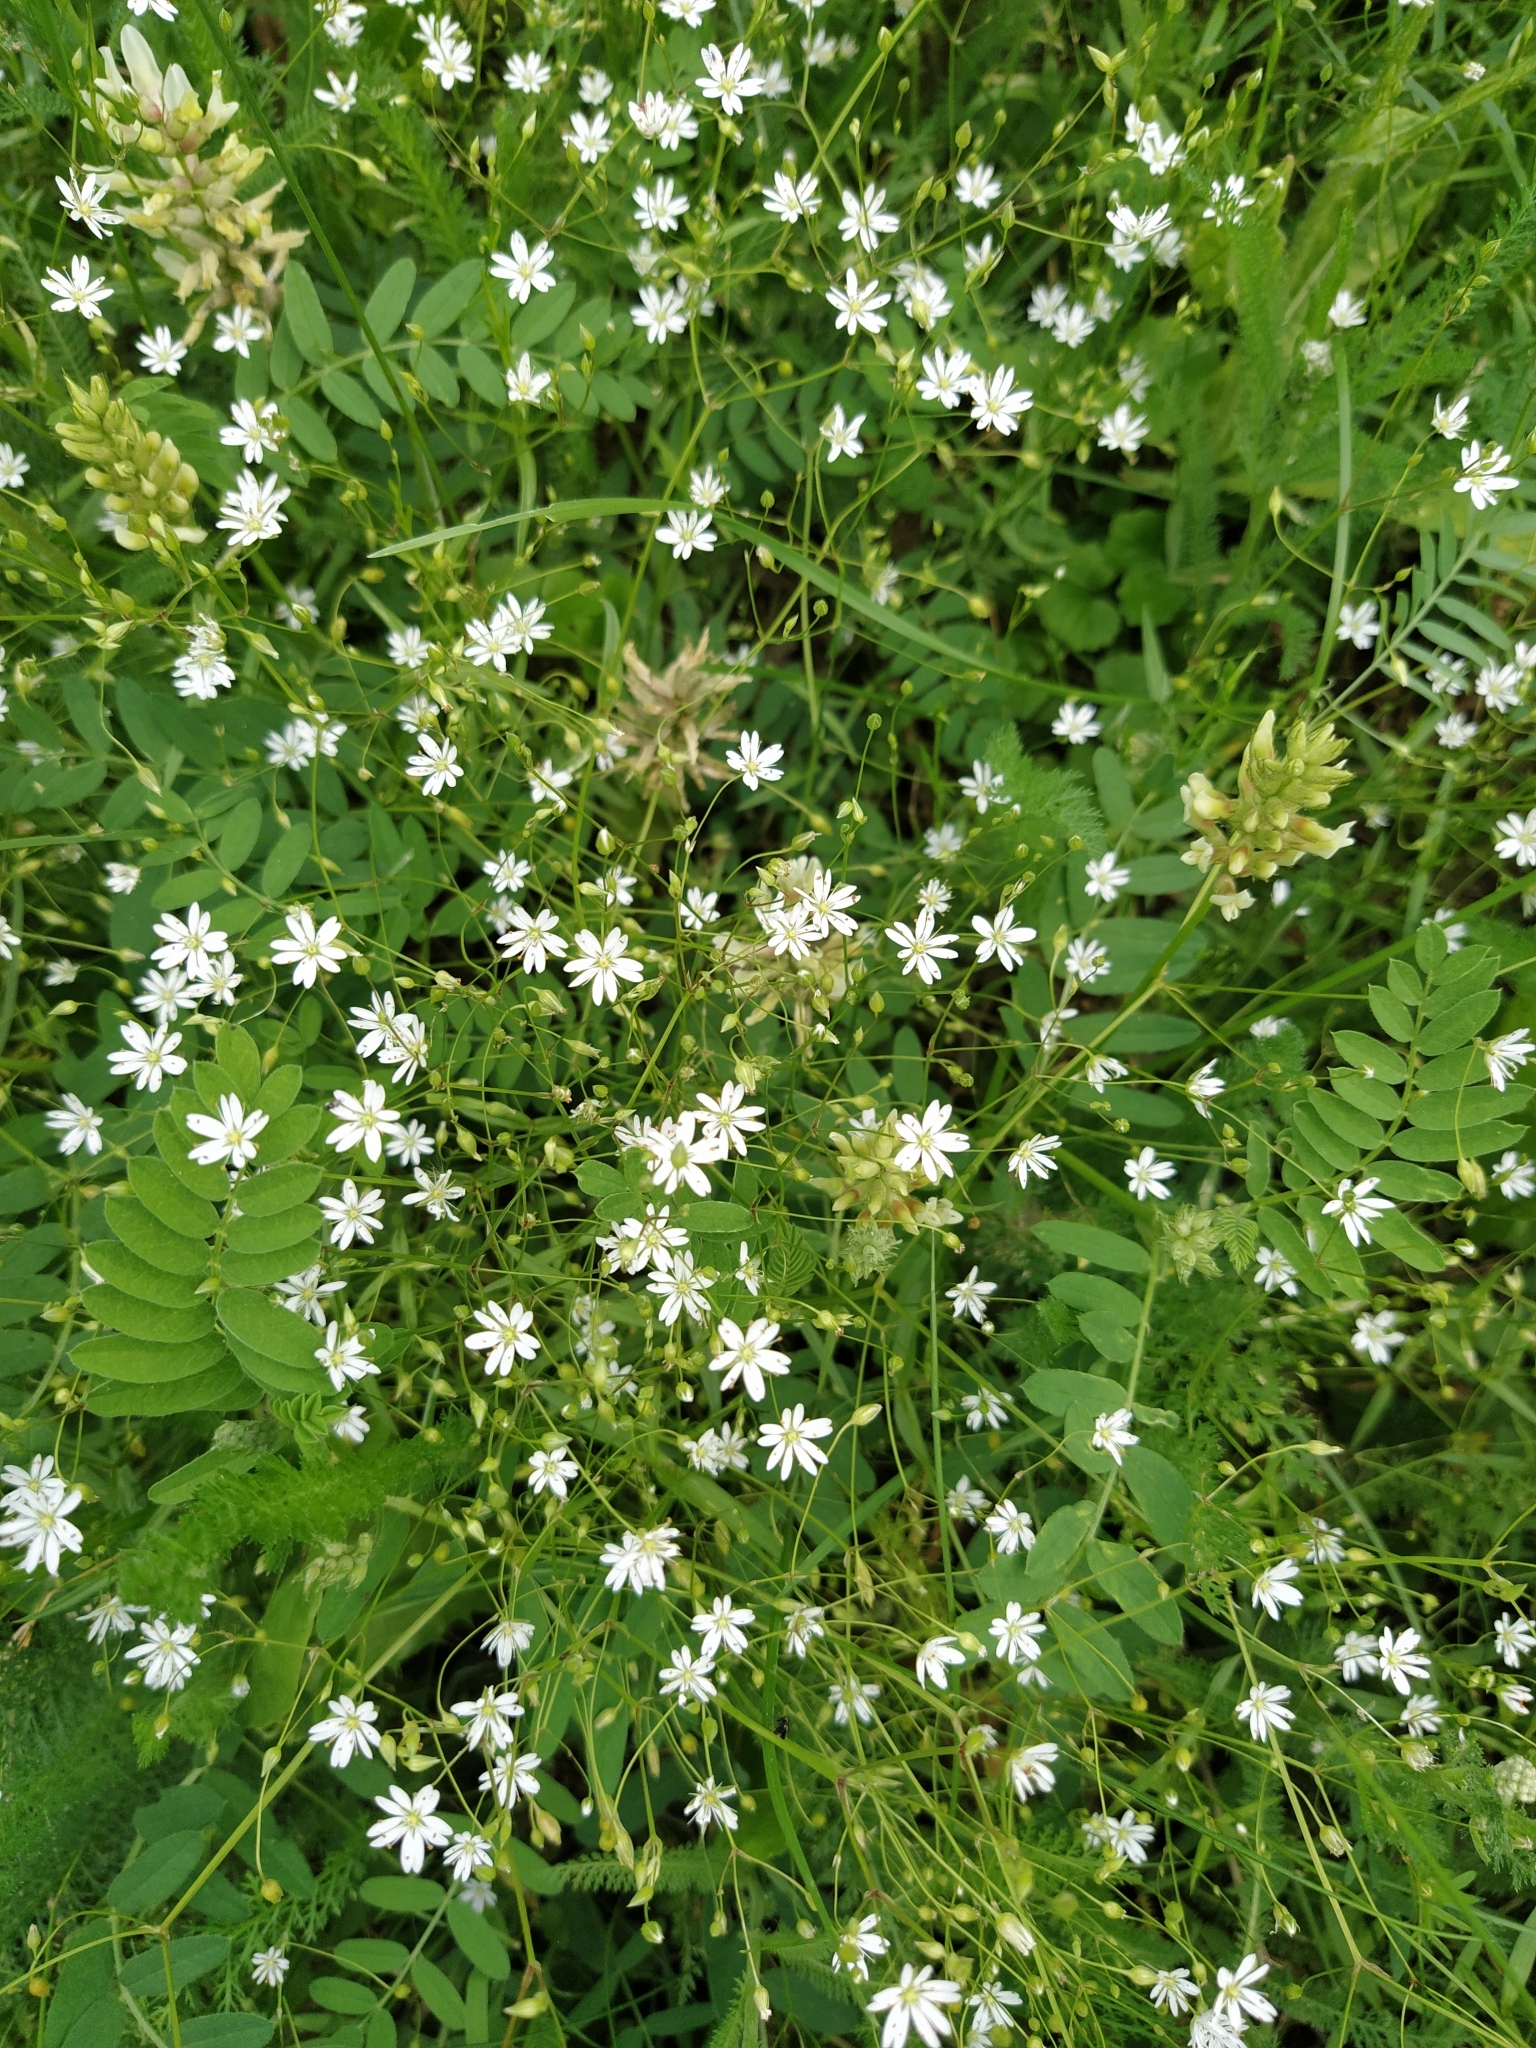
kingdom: Plantae
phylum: Tracheophyta
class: Magnoliopsida
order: Caryophyllales
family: Caryophyllaceae
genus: Stellaria
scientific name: Stellaria graminea
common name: Grass-like starwort
